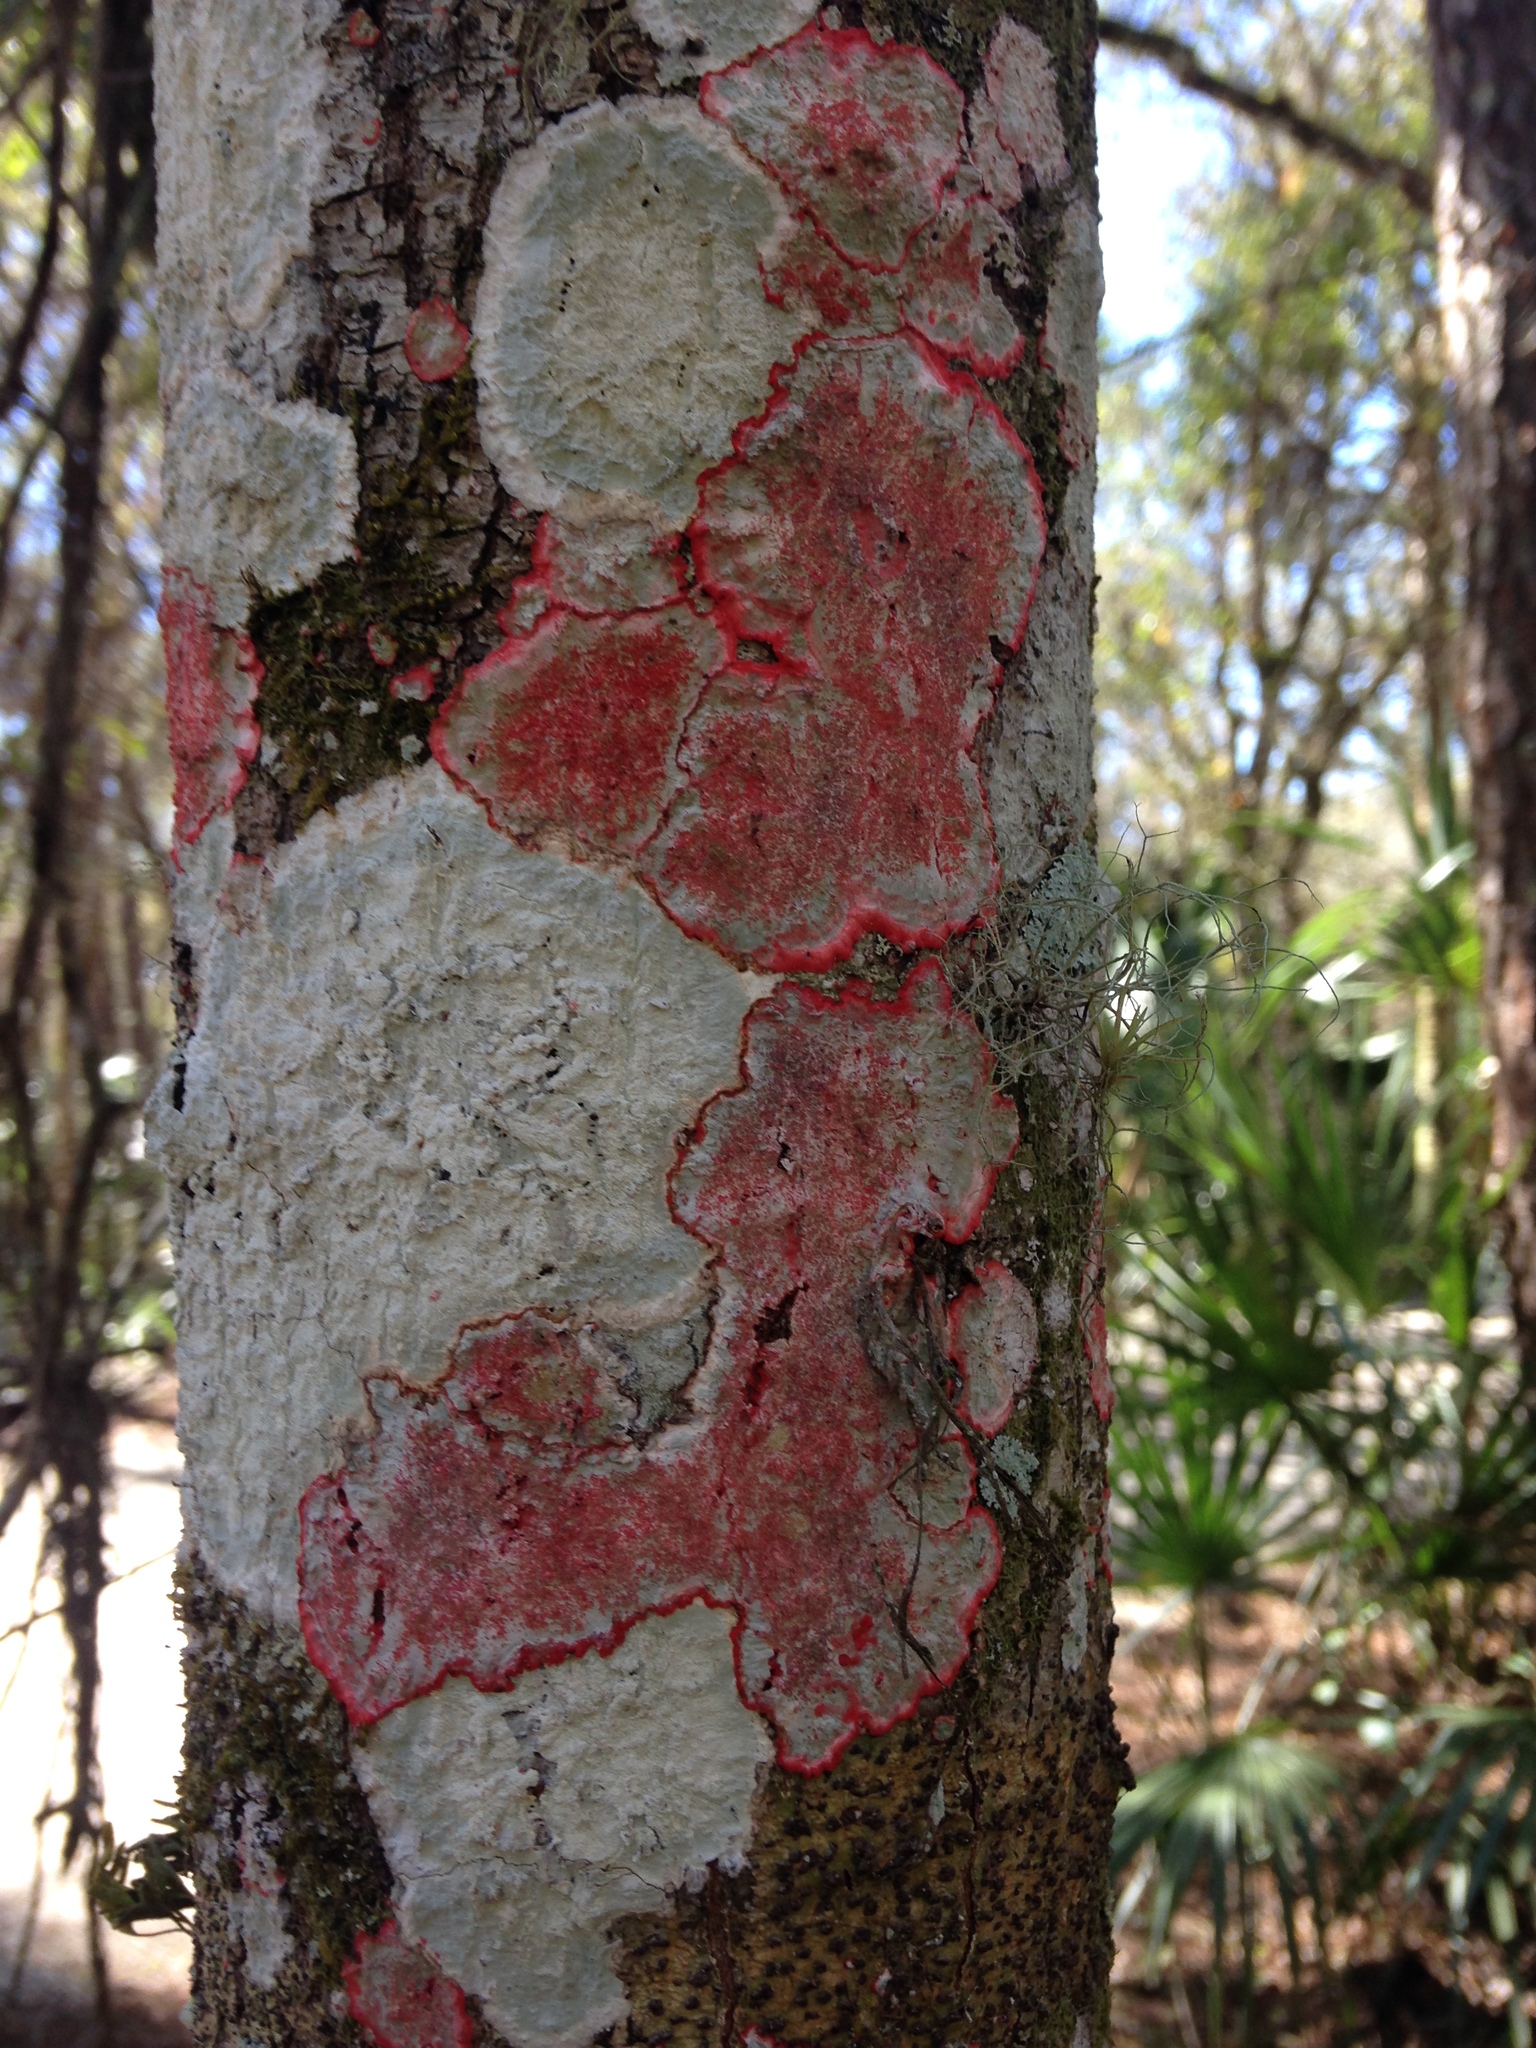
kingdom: Fungi
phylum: Ascomycota
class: Arthoniomycetes
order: Arthoniales
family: Arthoniaceae
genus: Herpothallon
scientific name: Herpothallon rubrocinctum
